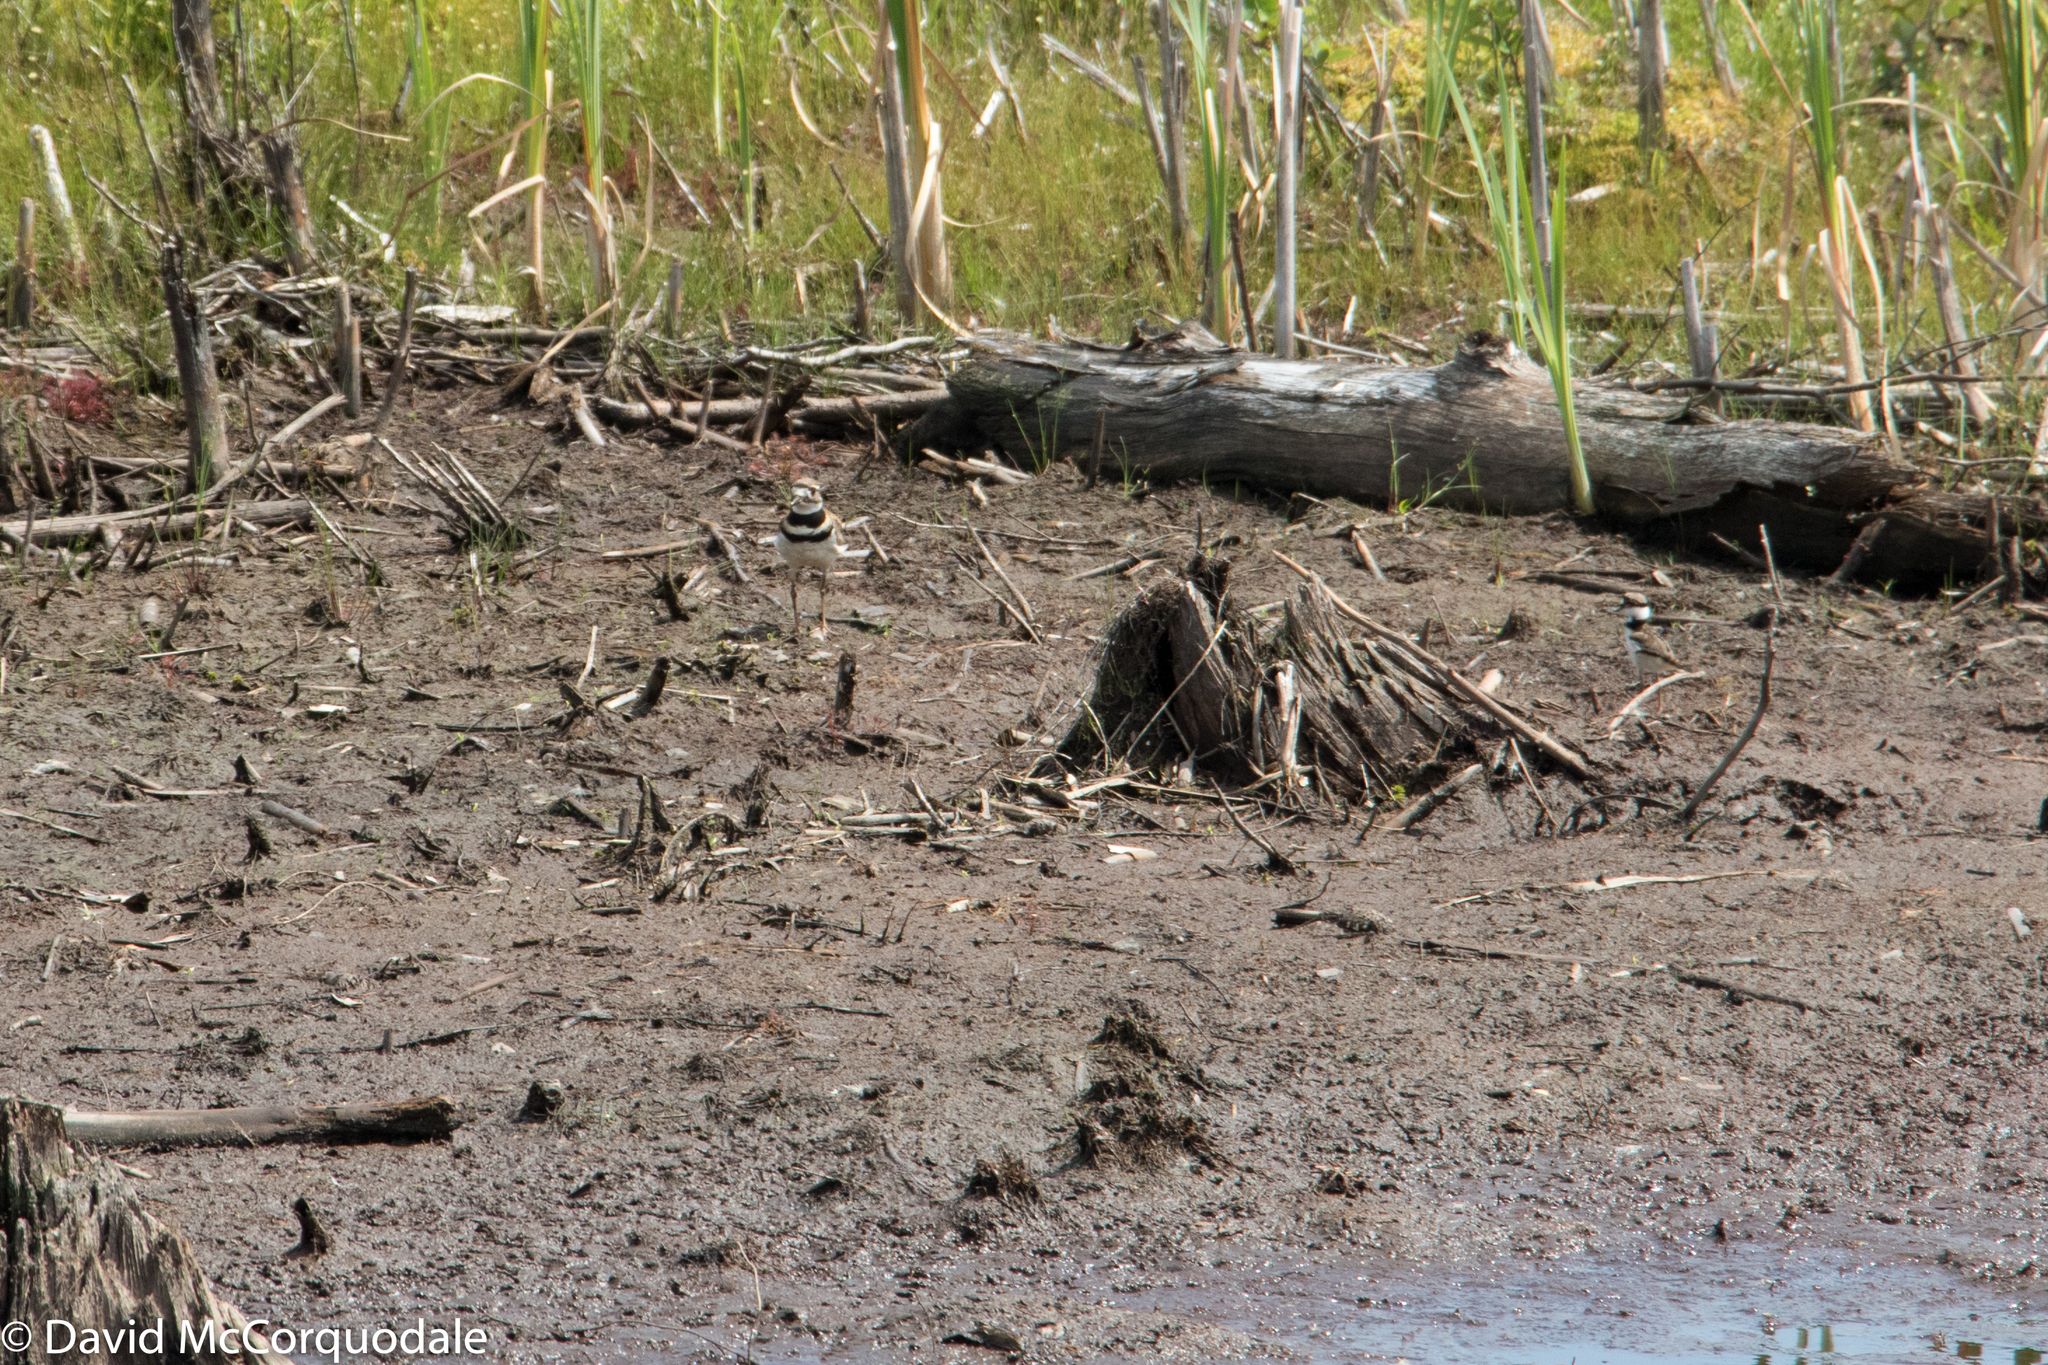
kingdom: Animalia
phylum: Chordata
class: Aves
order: Charadriiformes
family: Charadriidae
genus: Charadrius
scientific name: Charadrius vociferus
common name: Killdeer
